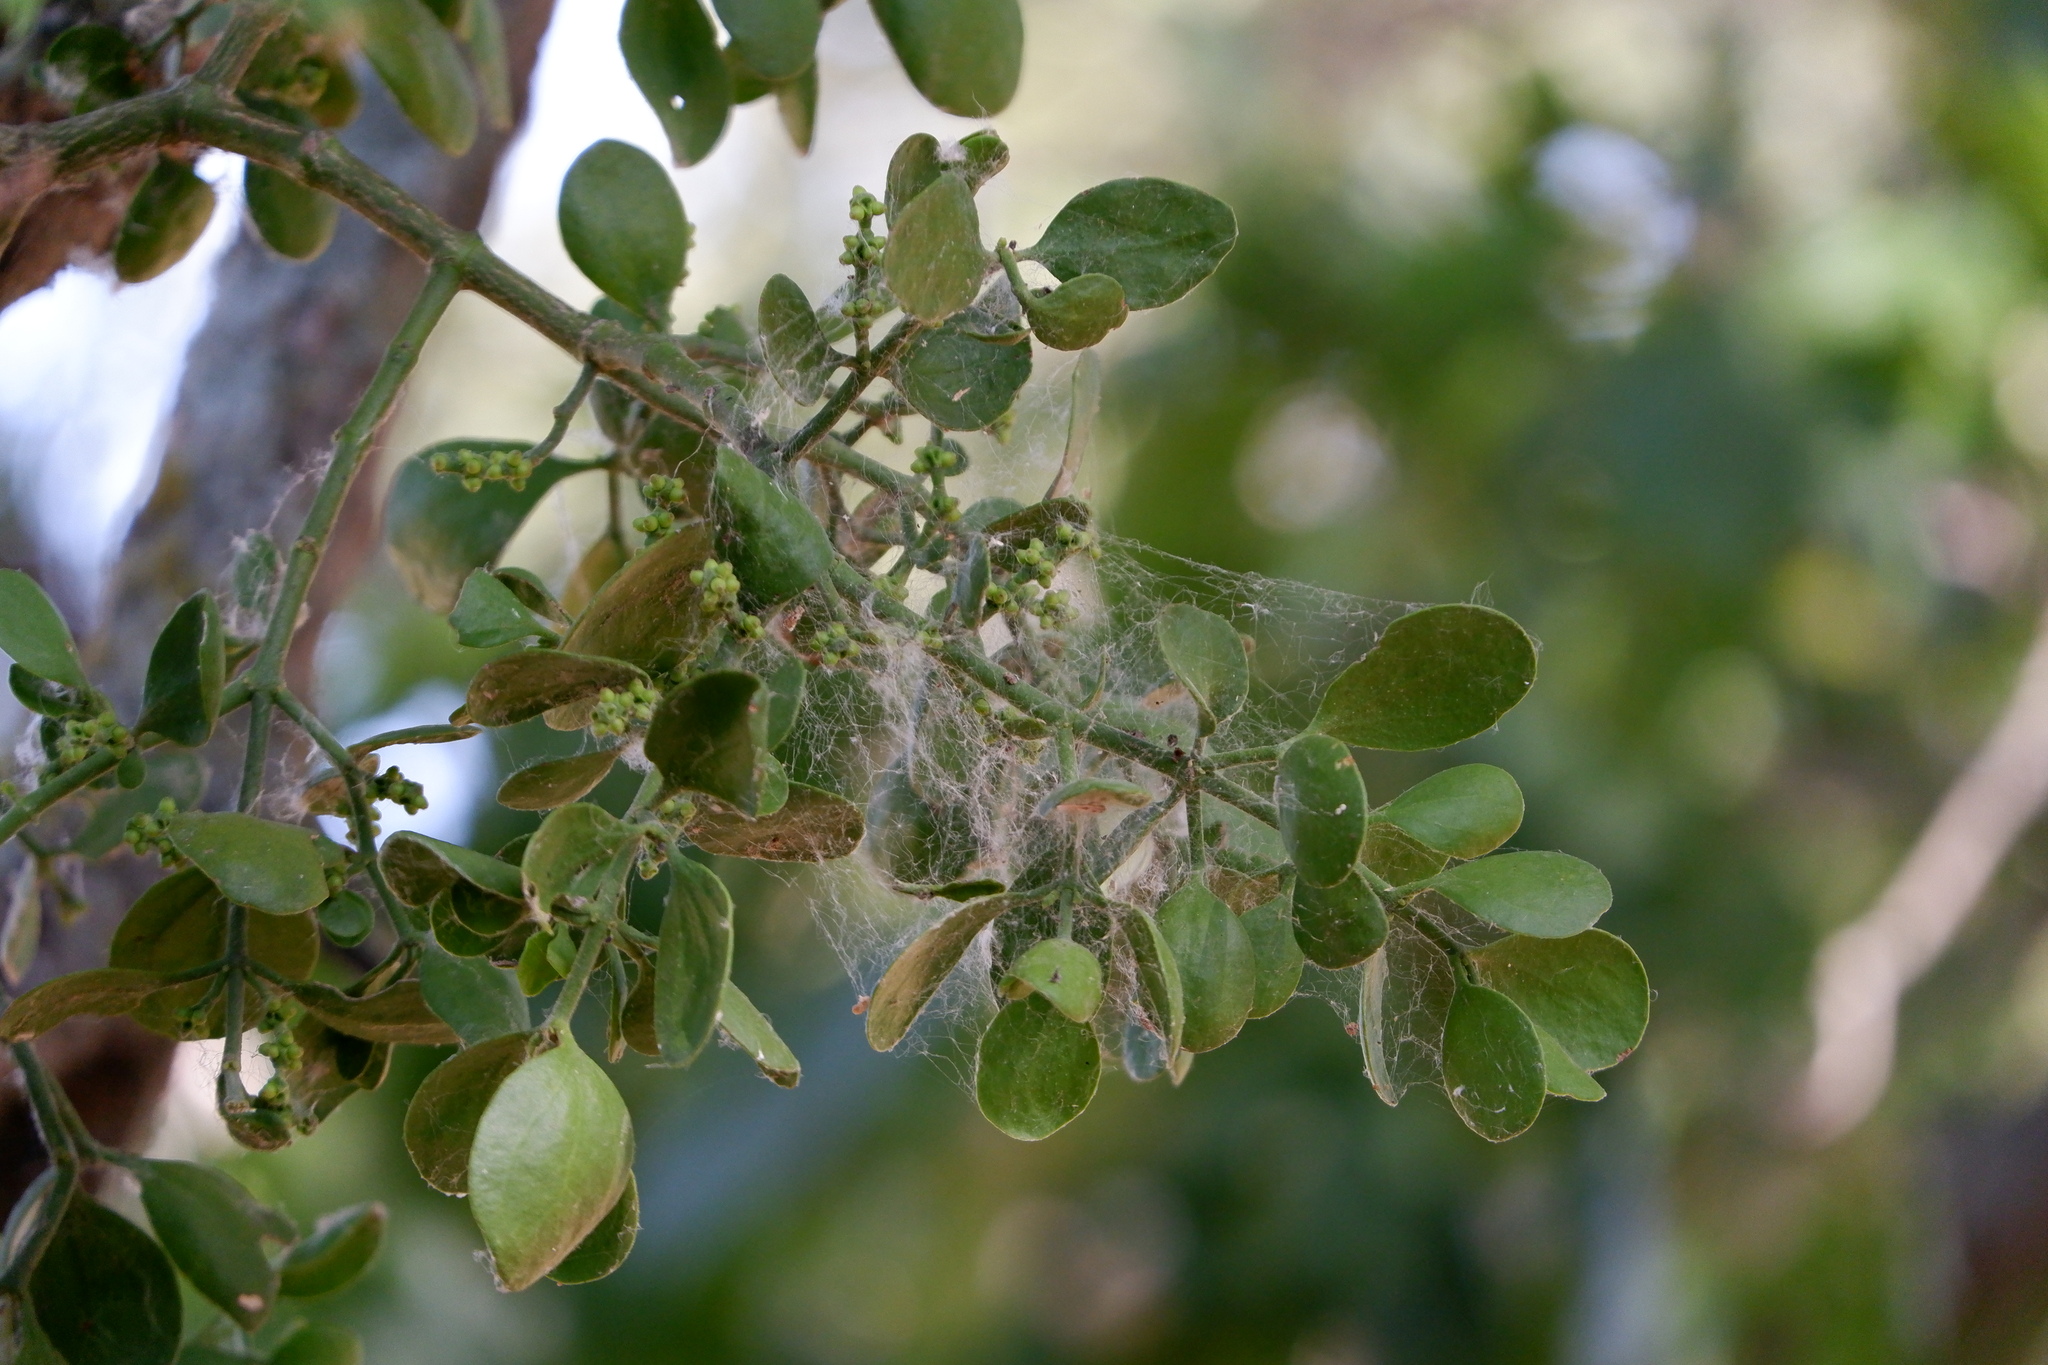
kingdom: Plantae
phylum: Tracheophyta
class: Magnoliopsida
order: Santalales
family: Viscaceae
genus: Phoradendron
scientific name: Phoradendron leucarpum
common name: Pacific mistletoe
